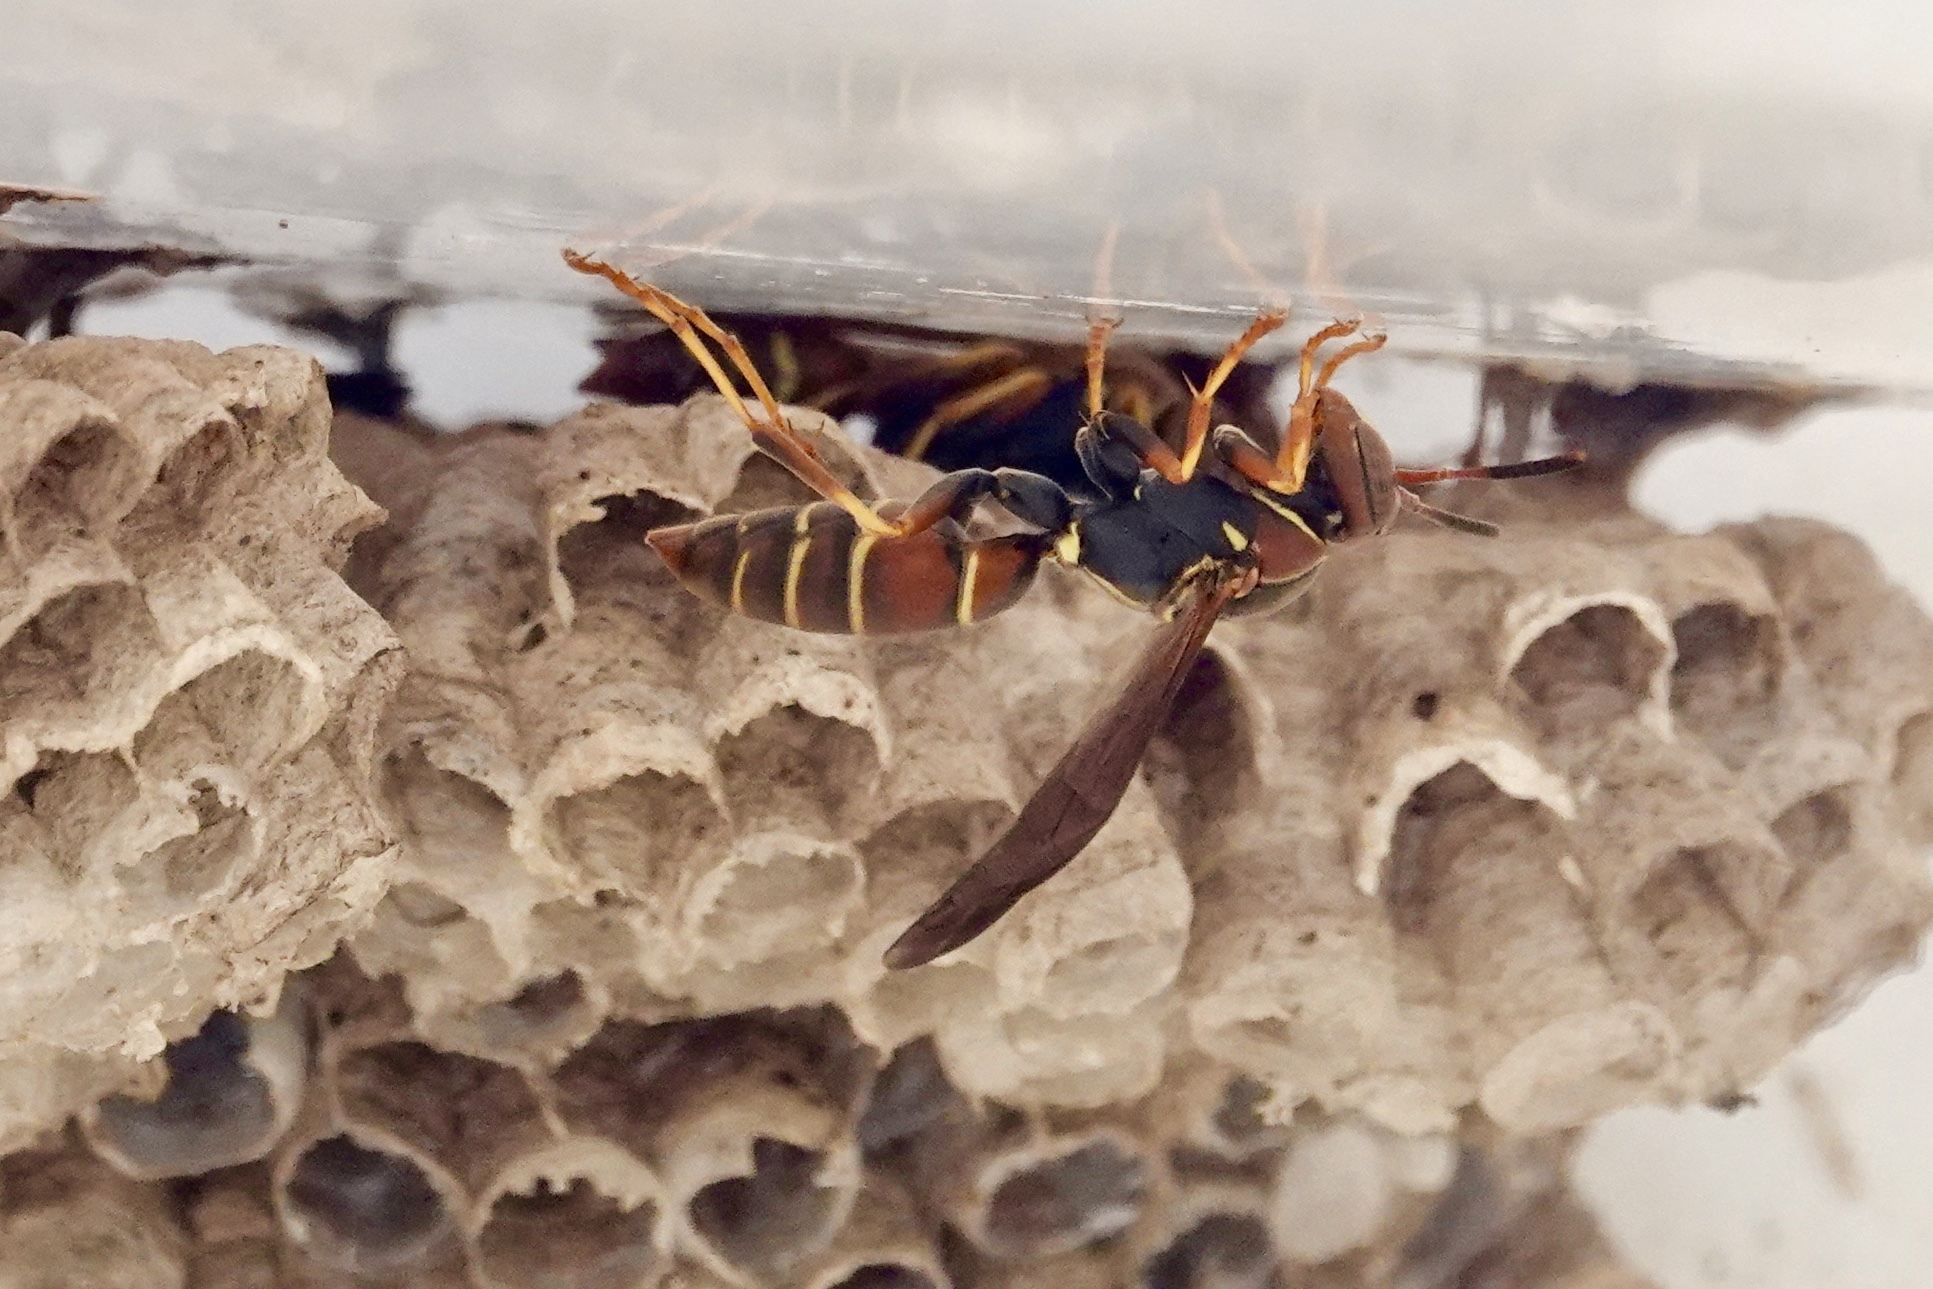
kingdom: Animalia
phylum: Arthropoda
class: Insecta
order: Hymenoptera
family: Eumenidae
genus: Polistes
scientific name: Polistes dorsalis
